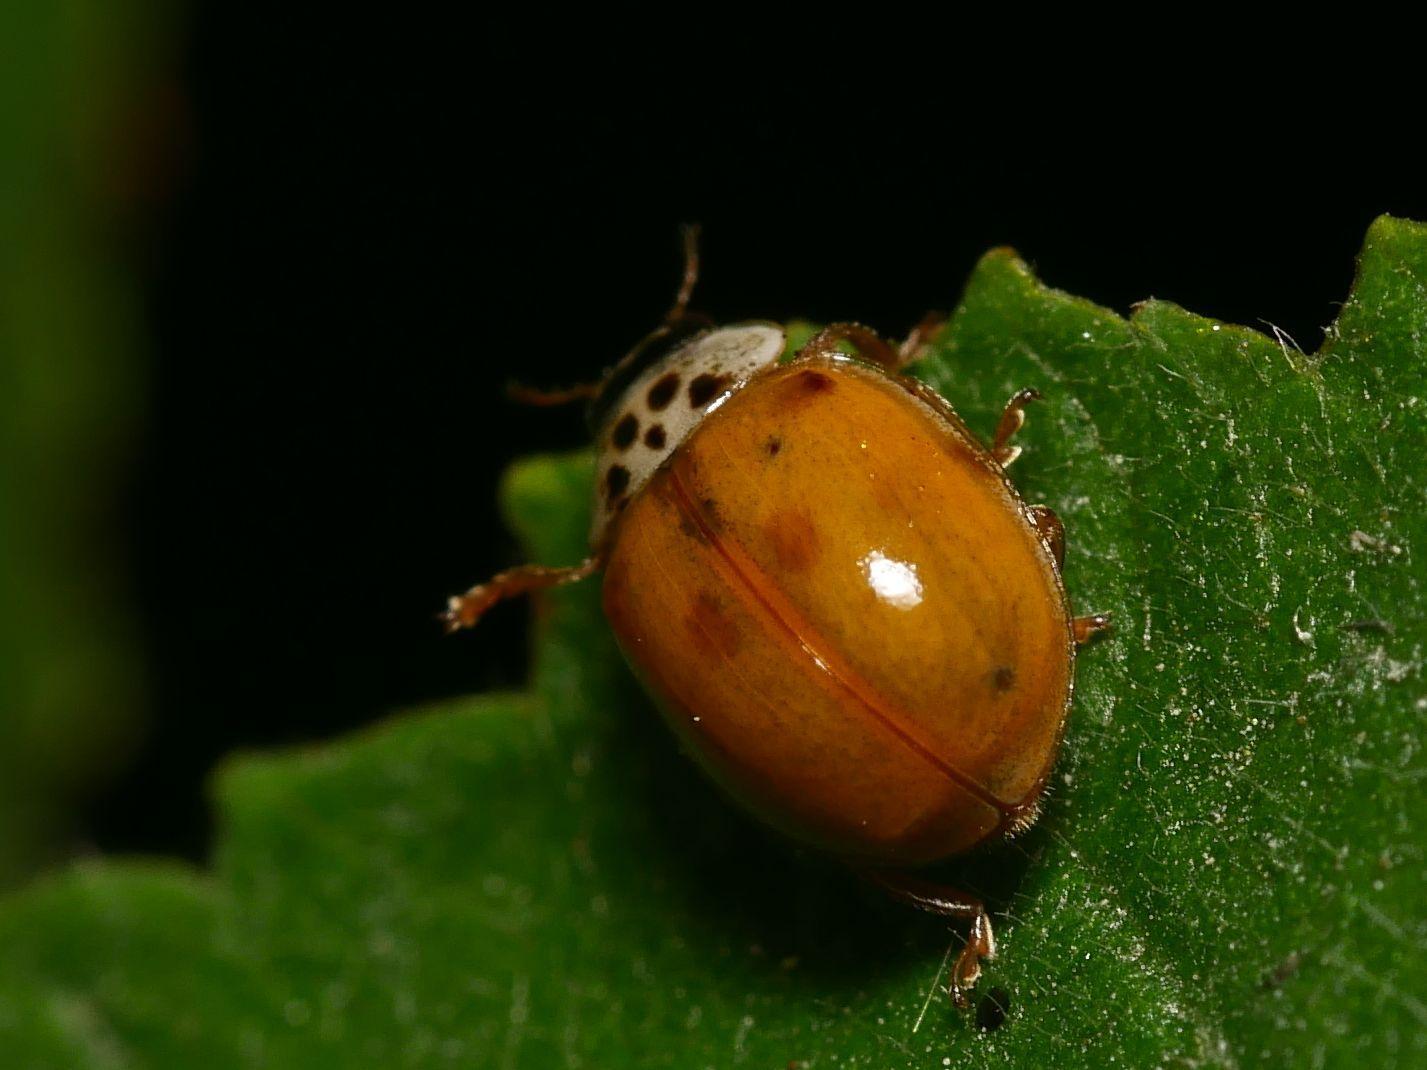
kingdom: Animalia
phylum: Arthropoda
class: Insecta
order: Coleoptera
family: Coccinellidae
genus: Adalia
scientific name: Adalia decempunctata
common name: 10-spot ladybird
